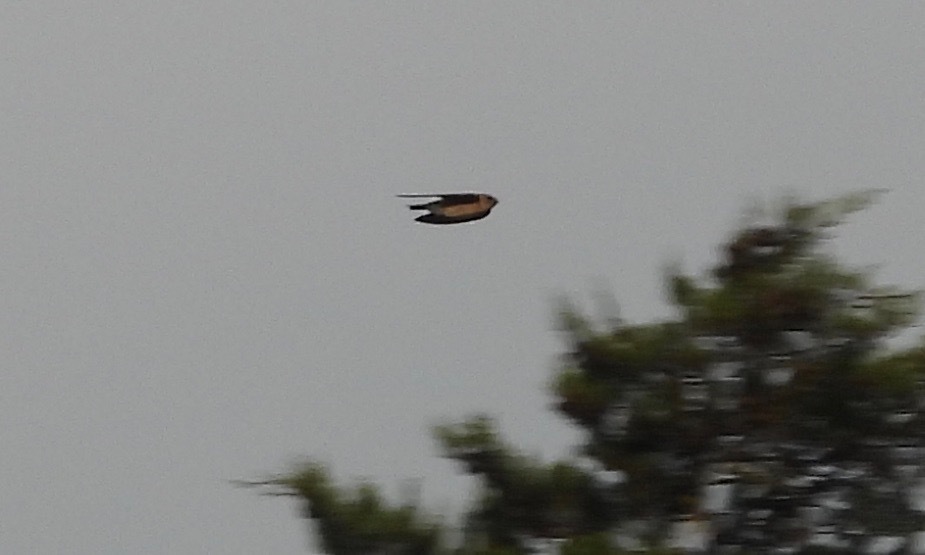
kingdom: Animalia
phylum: Chordata
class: Aves
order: Passeriformes
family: Hirundinidae
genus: Stelgidopteryx
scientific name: Stelgidopteryx serripennis
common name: Northern rough-winged swallow
